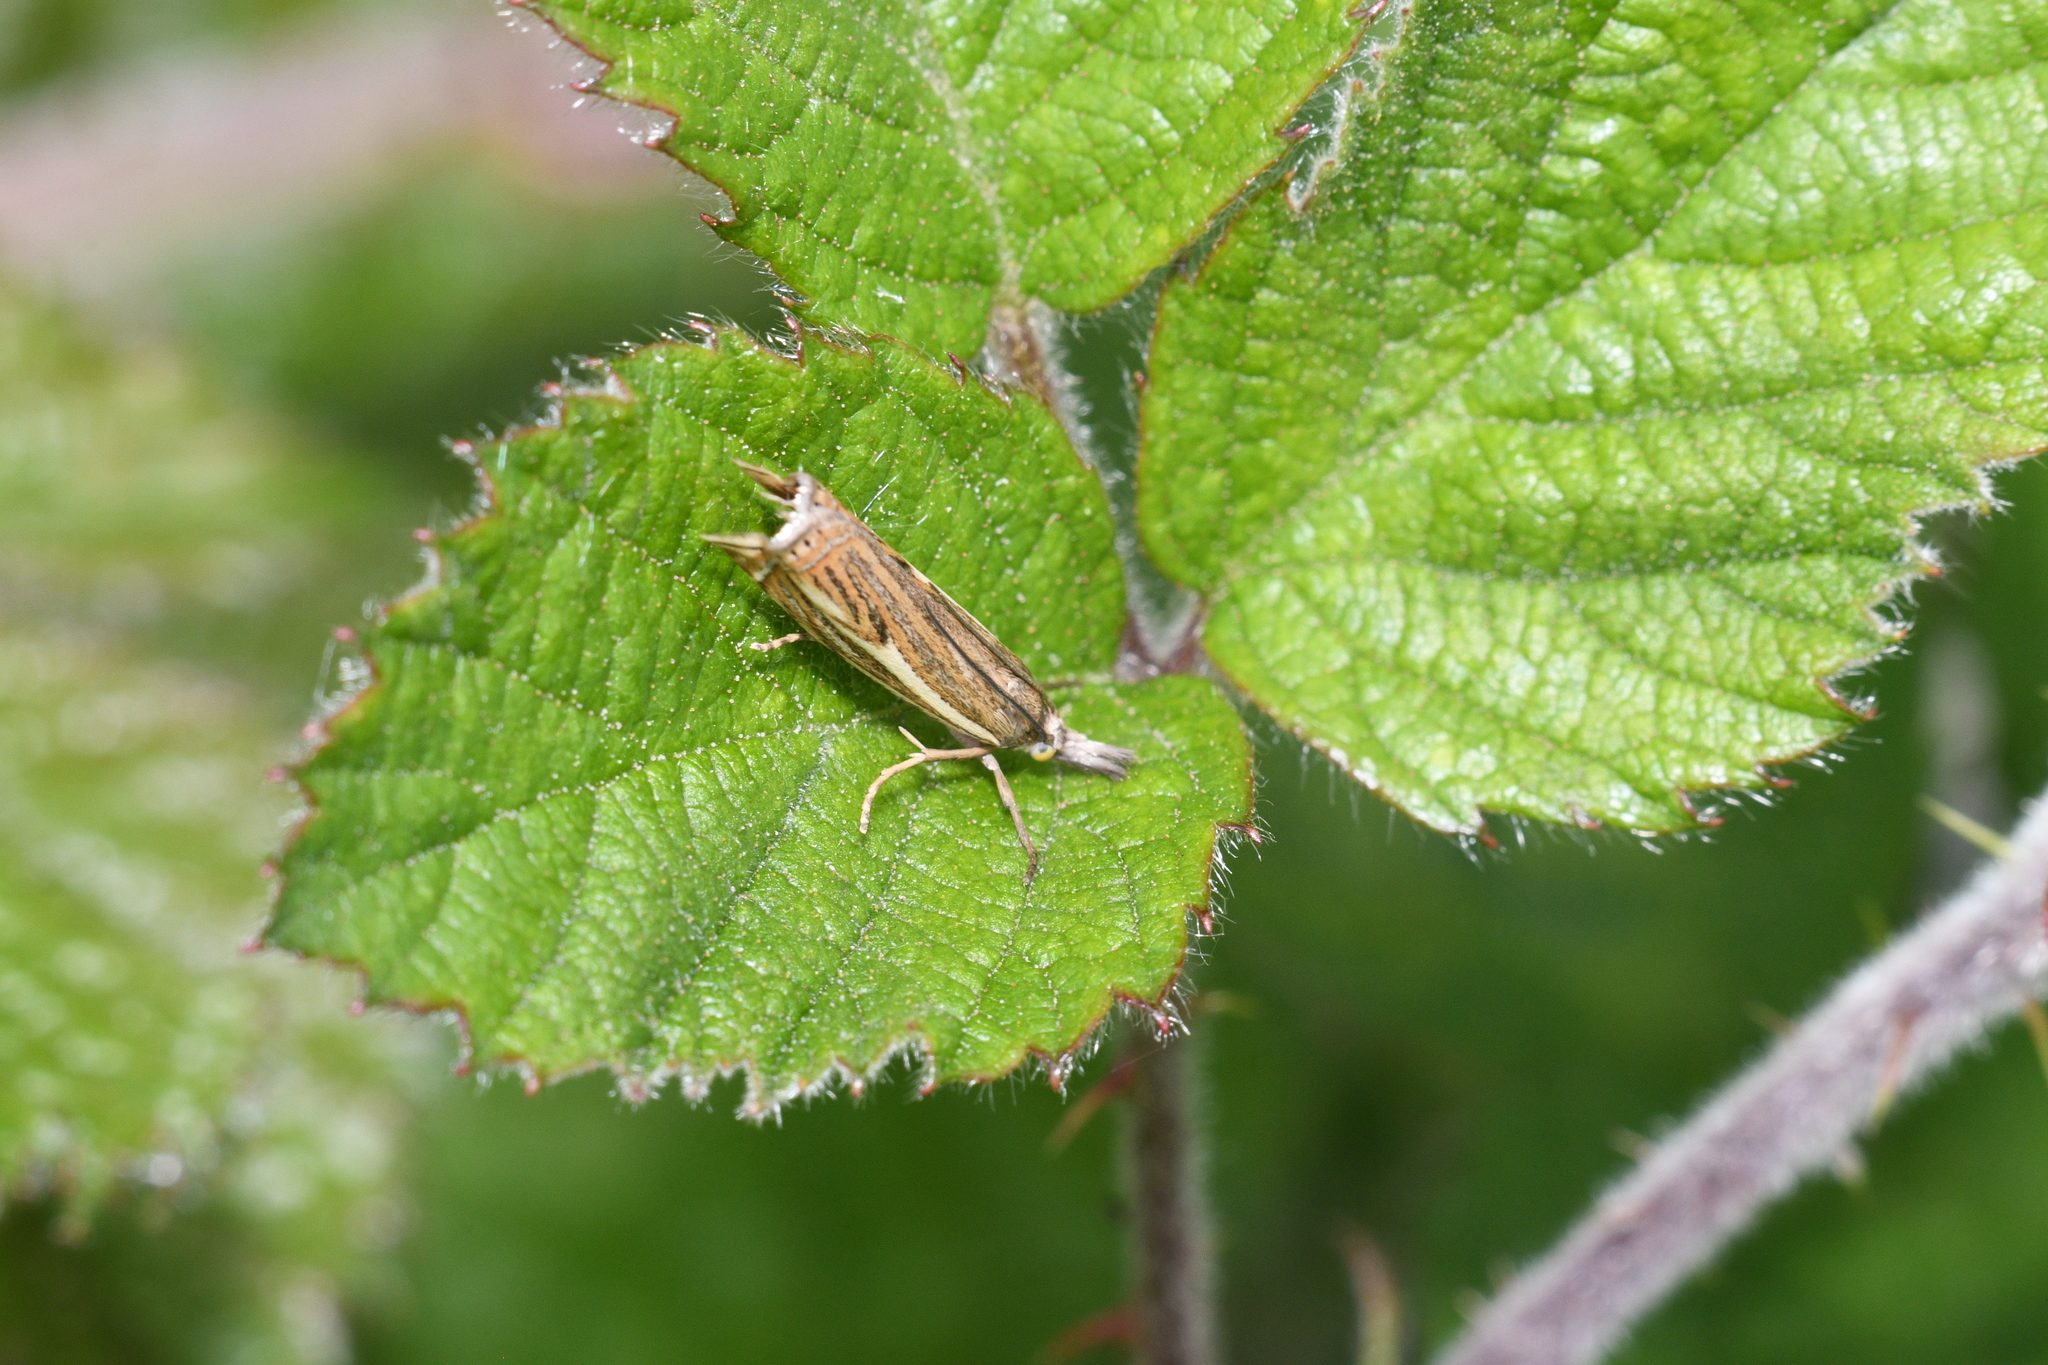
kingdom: Animalia
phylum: Arthropoda
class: Insecta
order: Lepidoptera
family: Crambidae
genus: Crambus
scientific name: Crambus nemorella
